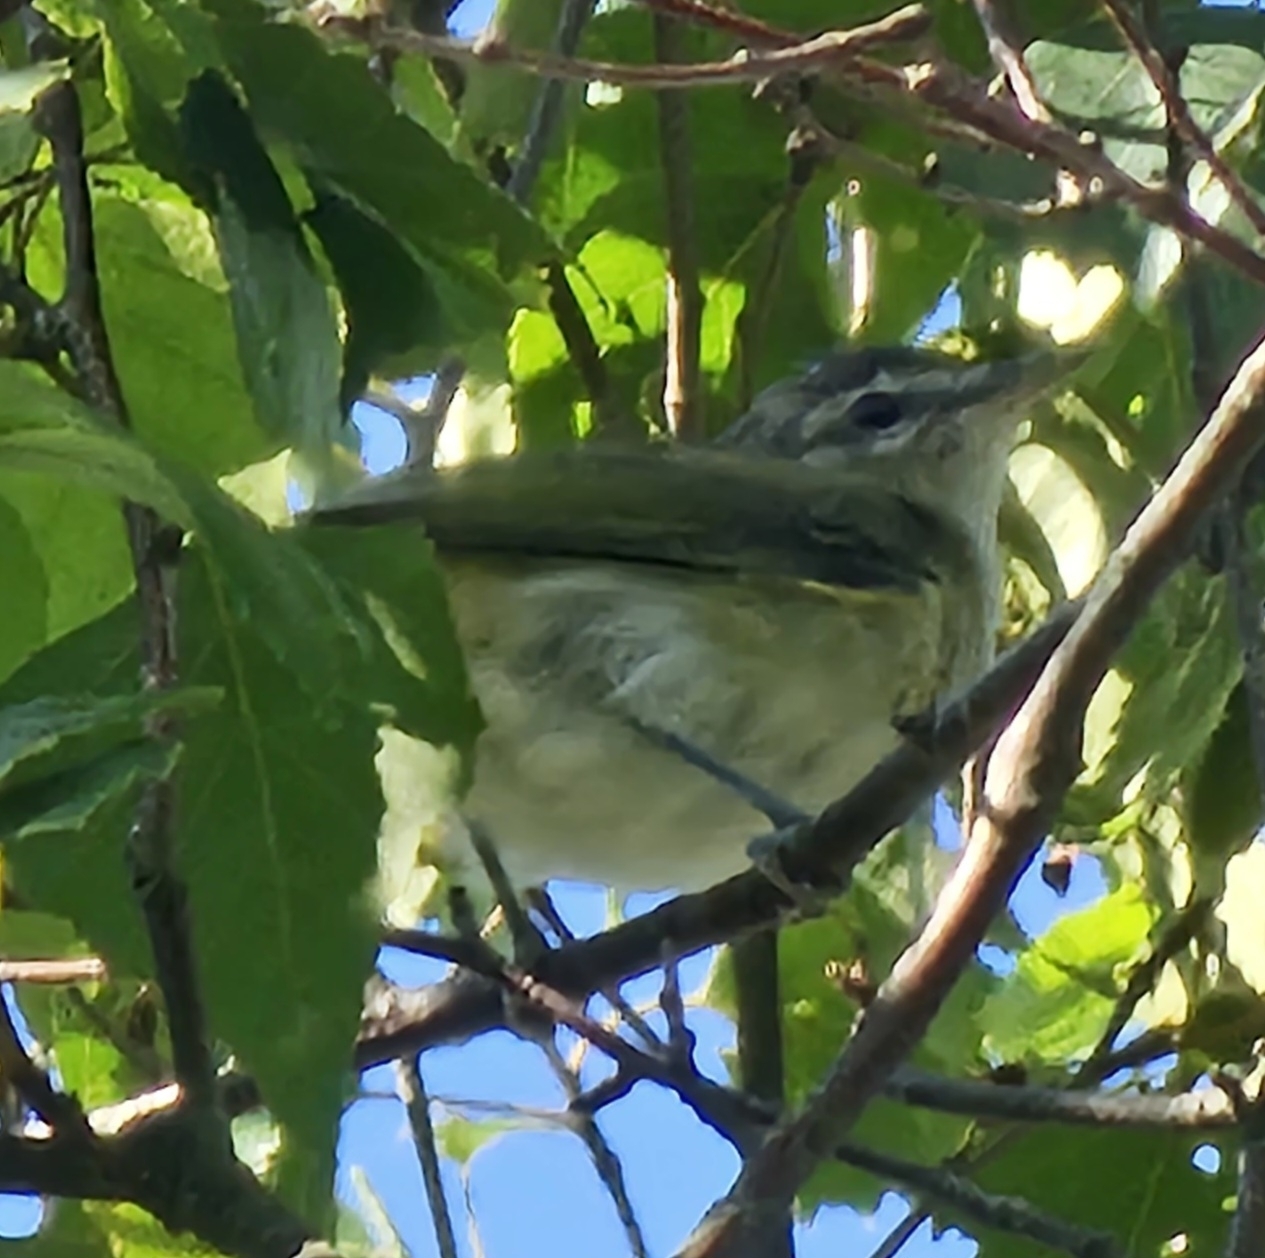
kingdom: Animalia
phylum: Chordata
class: Aves
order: Passeriformes
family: Vireonidae
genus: Vireo
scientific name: Vireo olivaceus
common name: Red-eyed vireo
